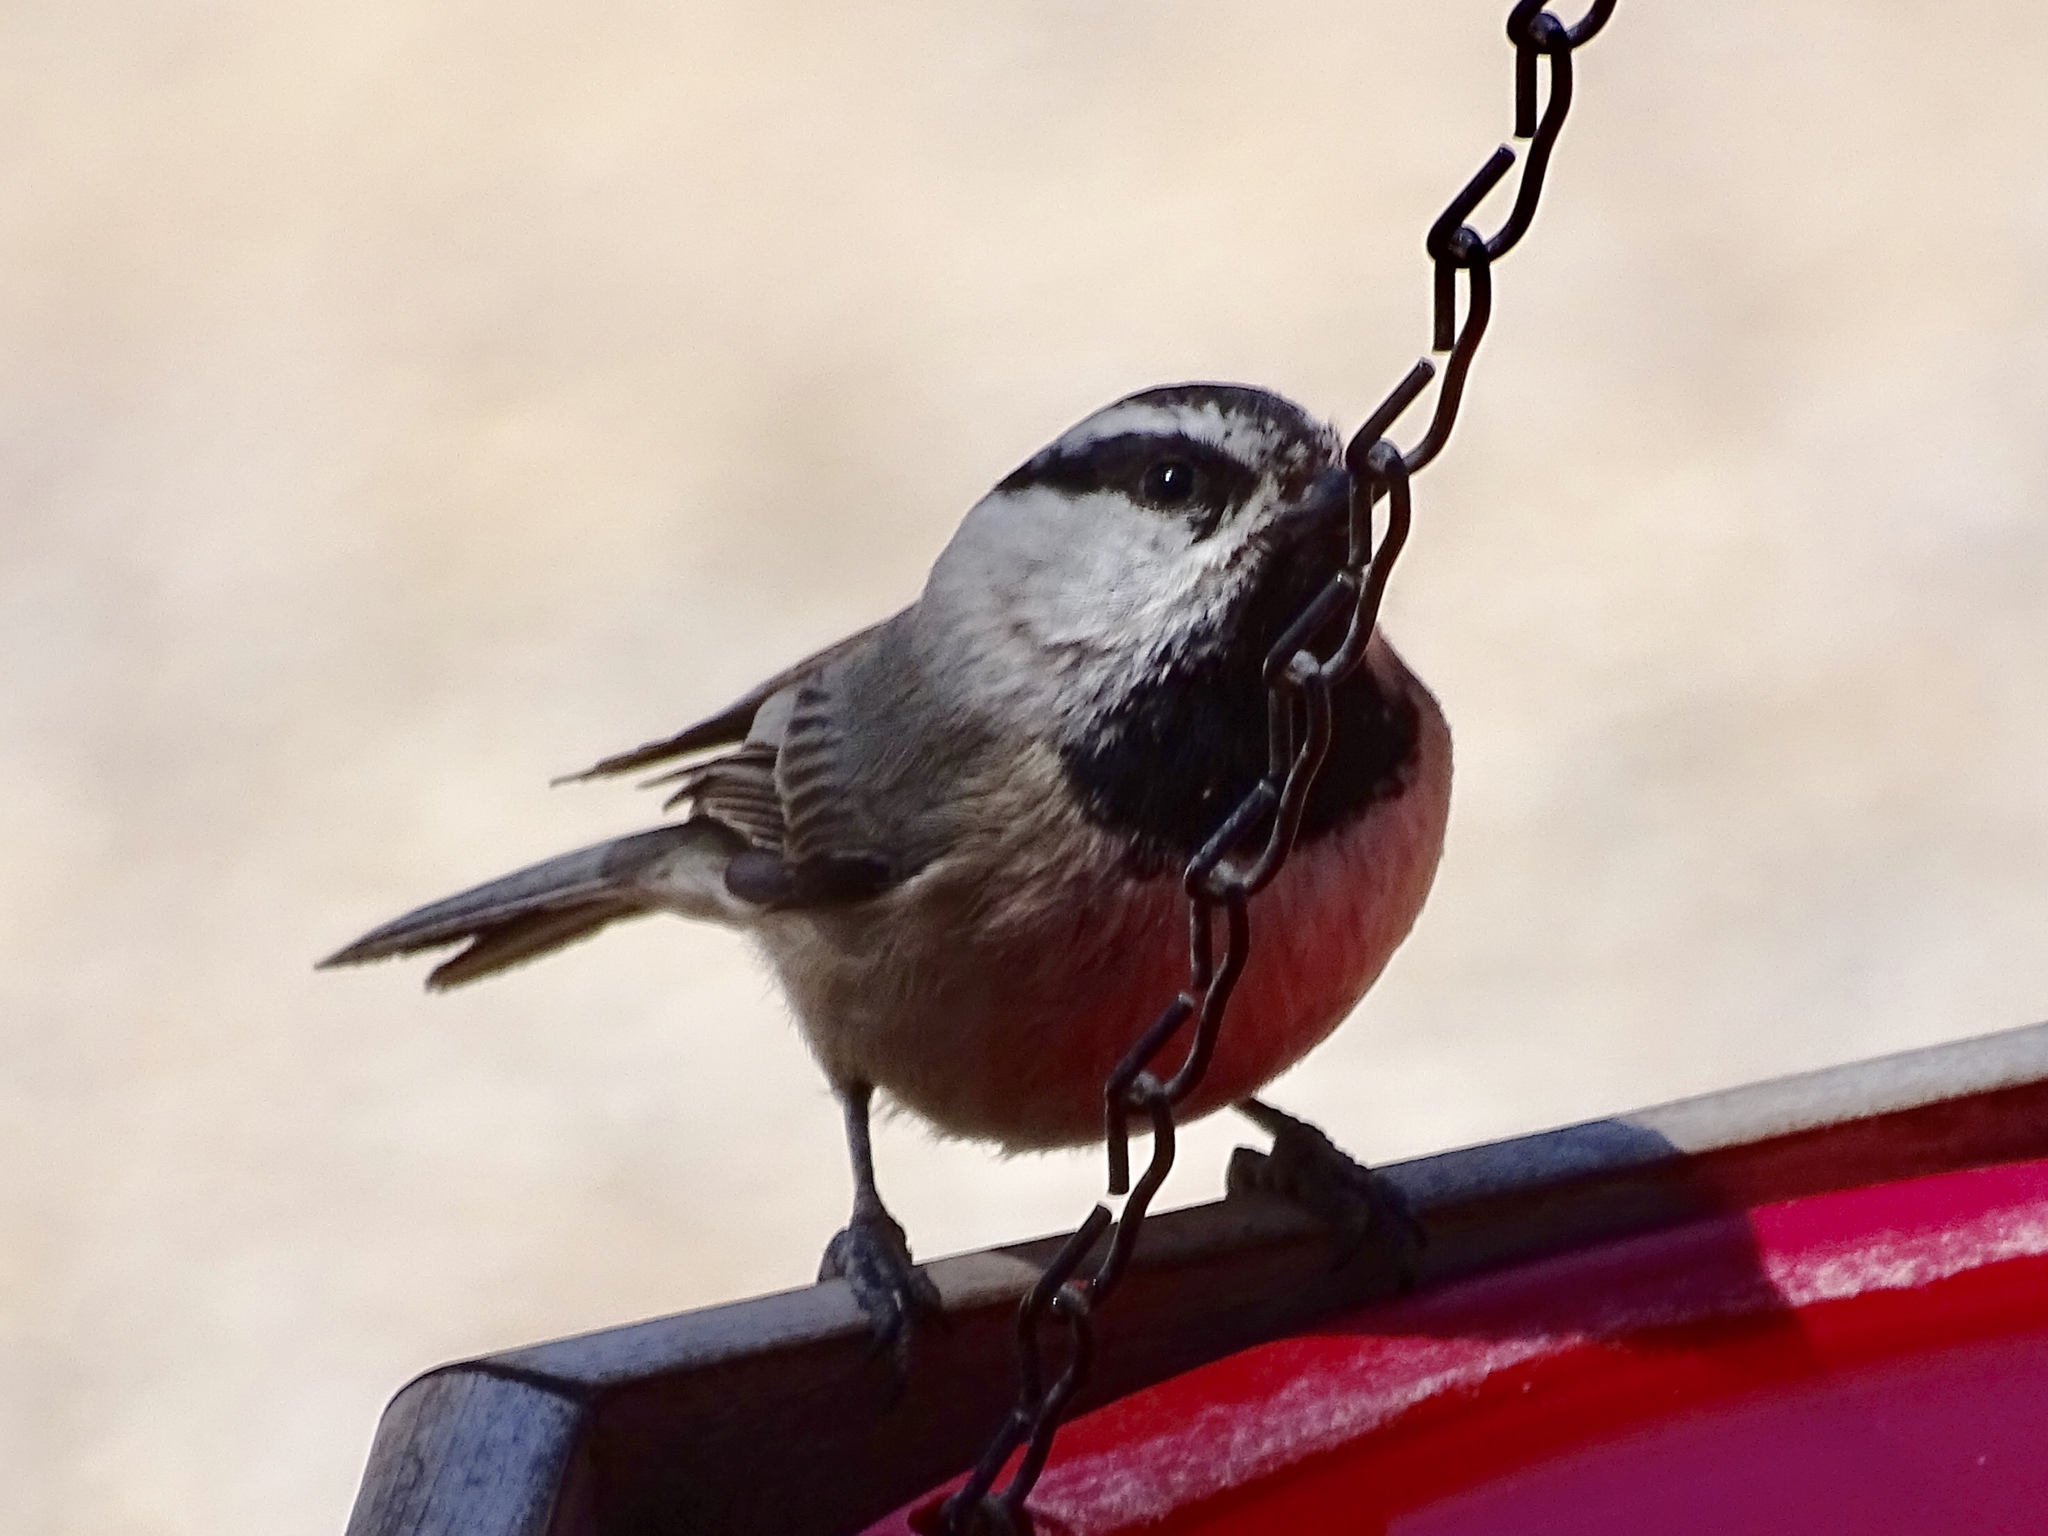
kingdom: Animalia
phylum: Chordata
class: Aves
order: Passeriformes
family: Paridae
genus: Poecile
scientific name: Poecile gambeli
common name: Mountain chickadee
